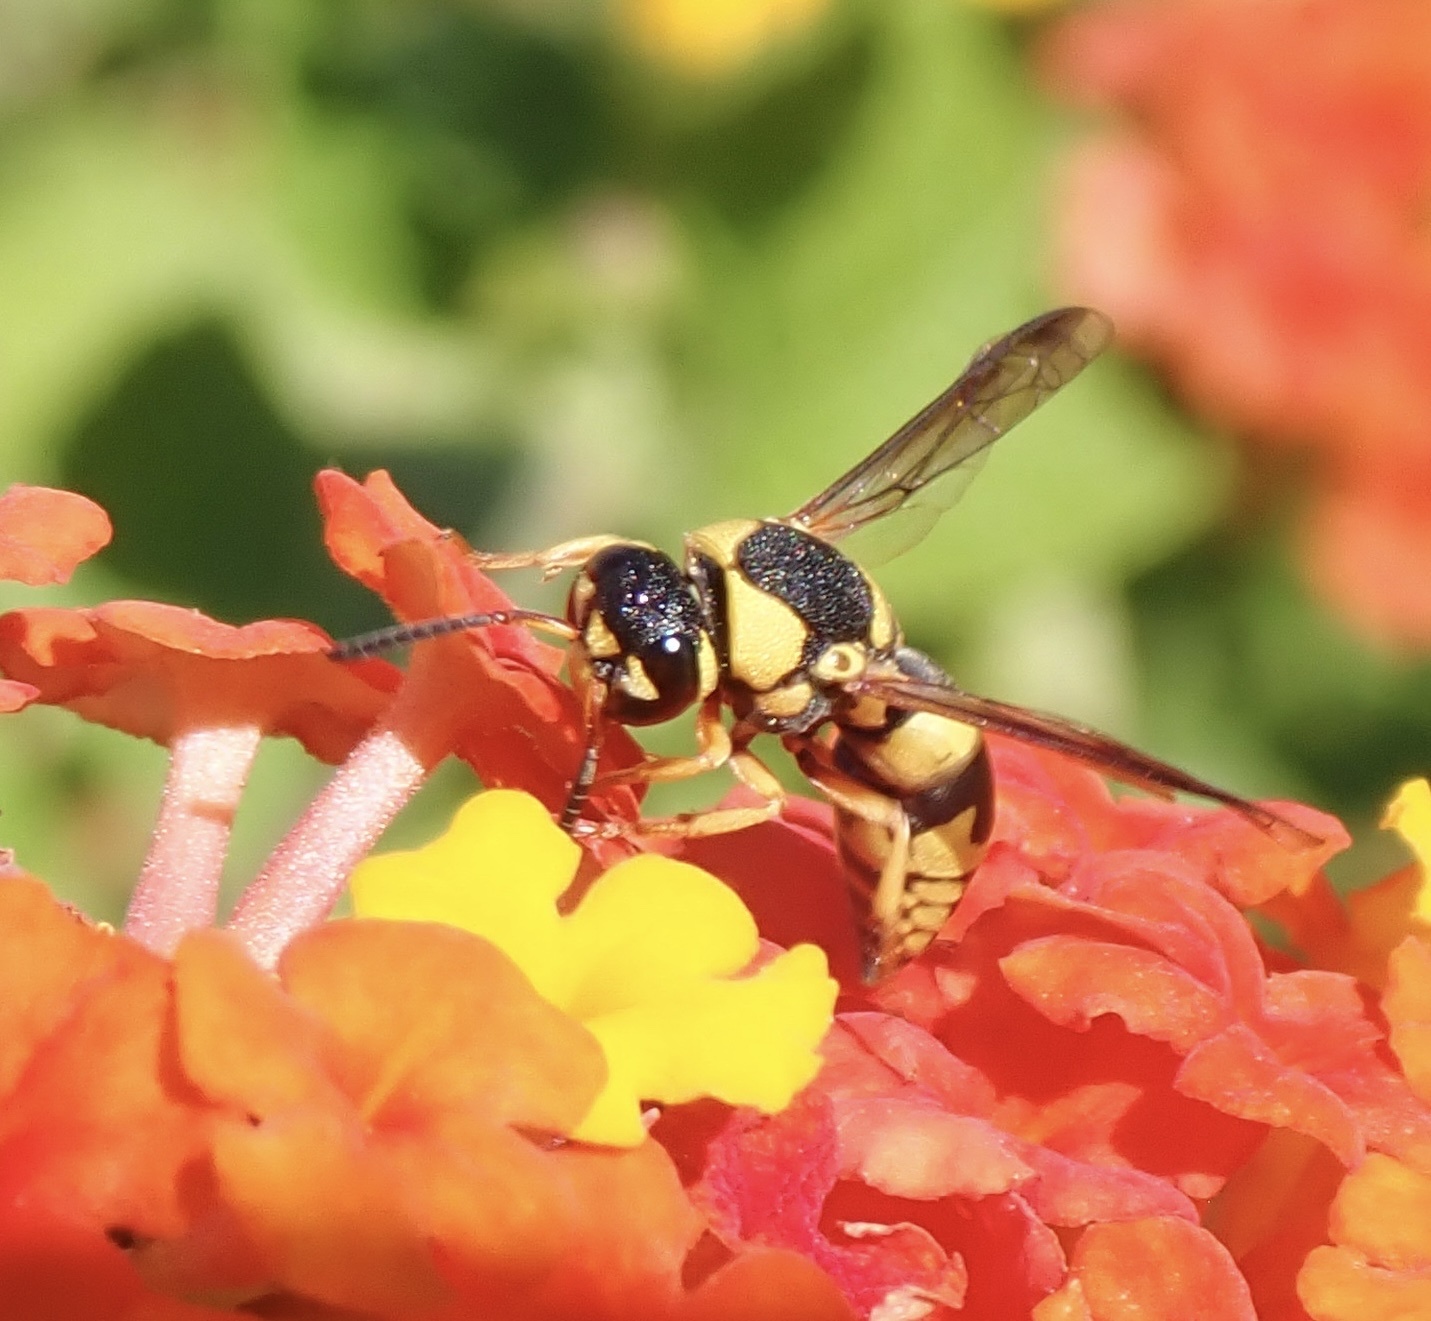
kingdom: Animalia
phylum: Arthropoda
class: Insecta
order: Hymenoptera
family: Eumenidae
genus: Euodynerus
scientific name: Euodynerus variegatus
